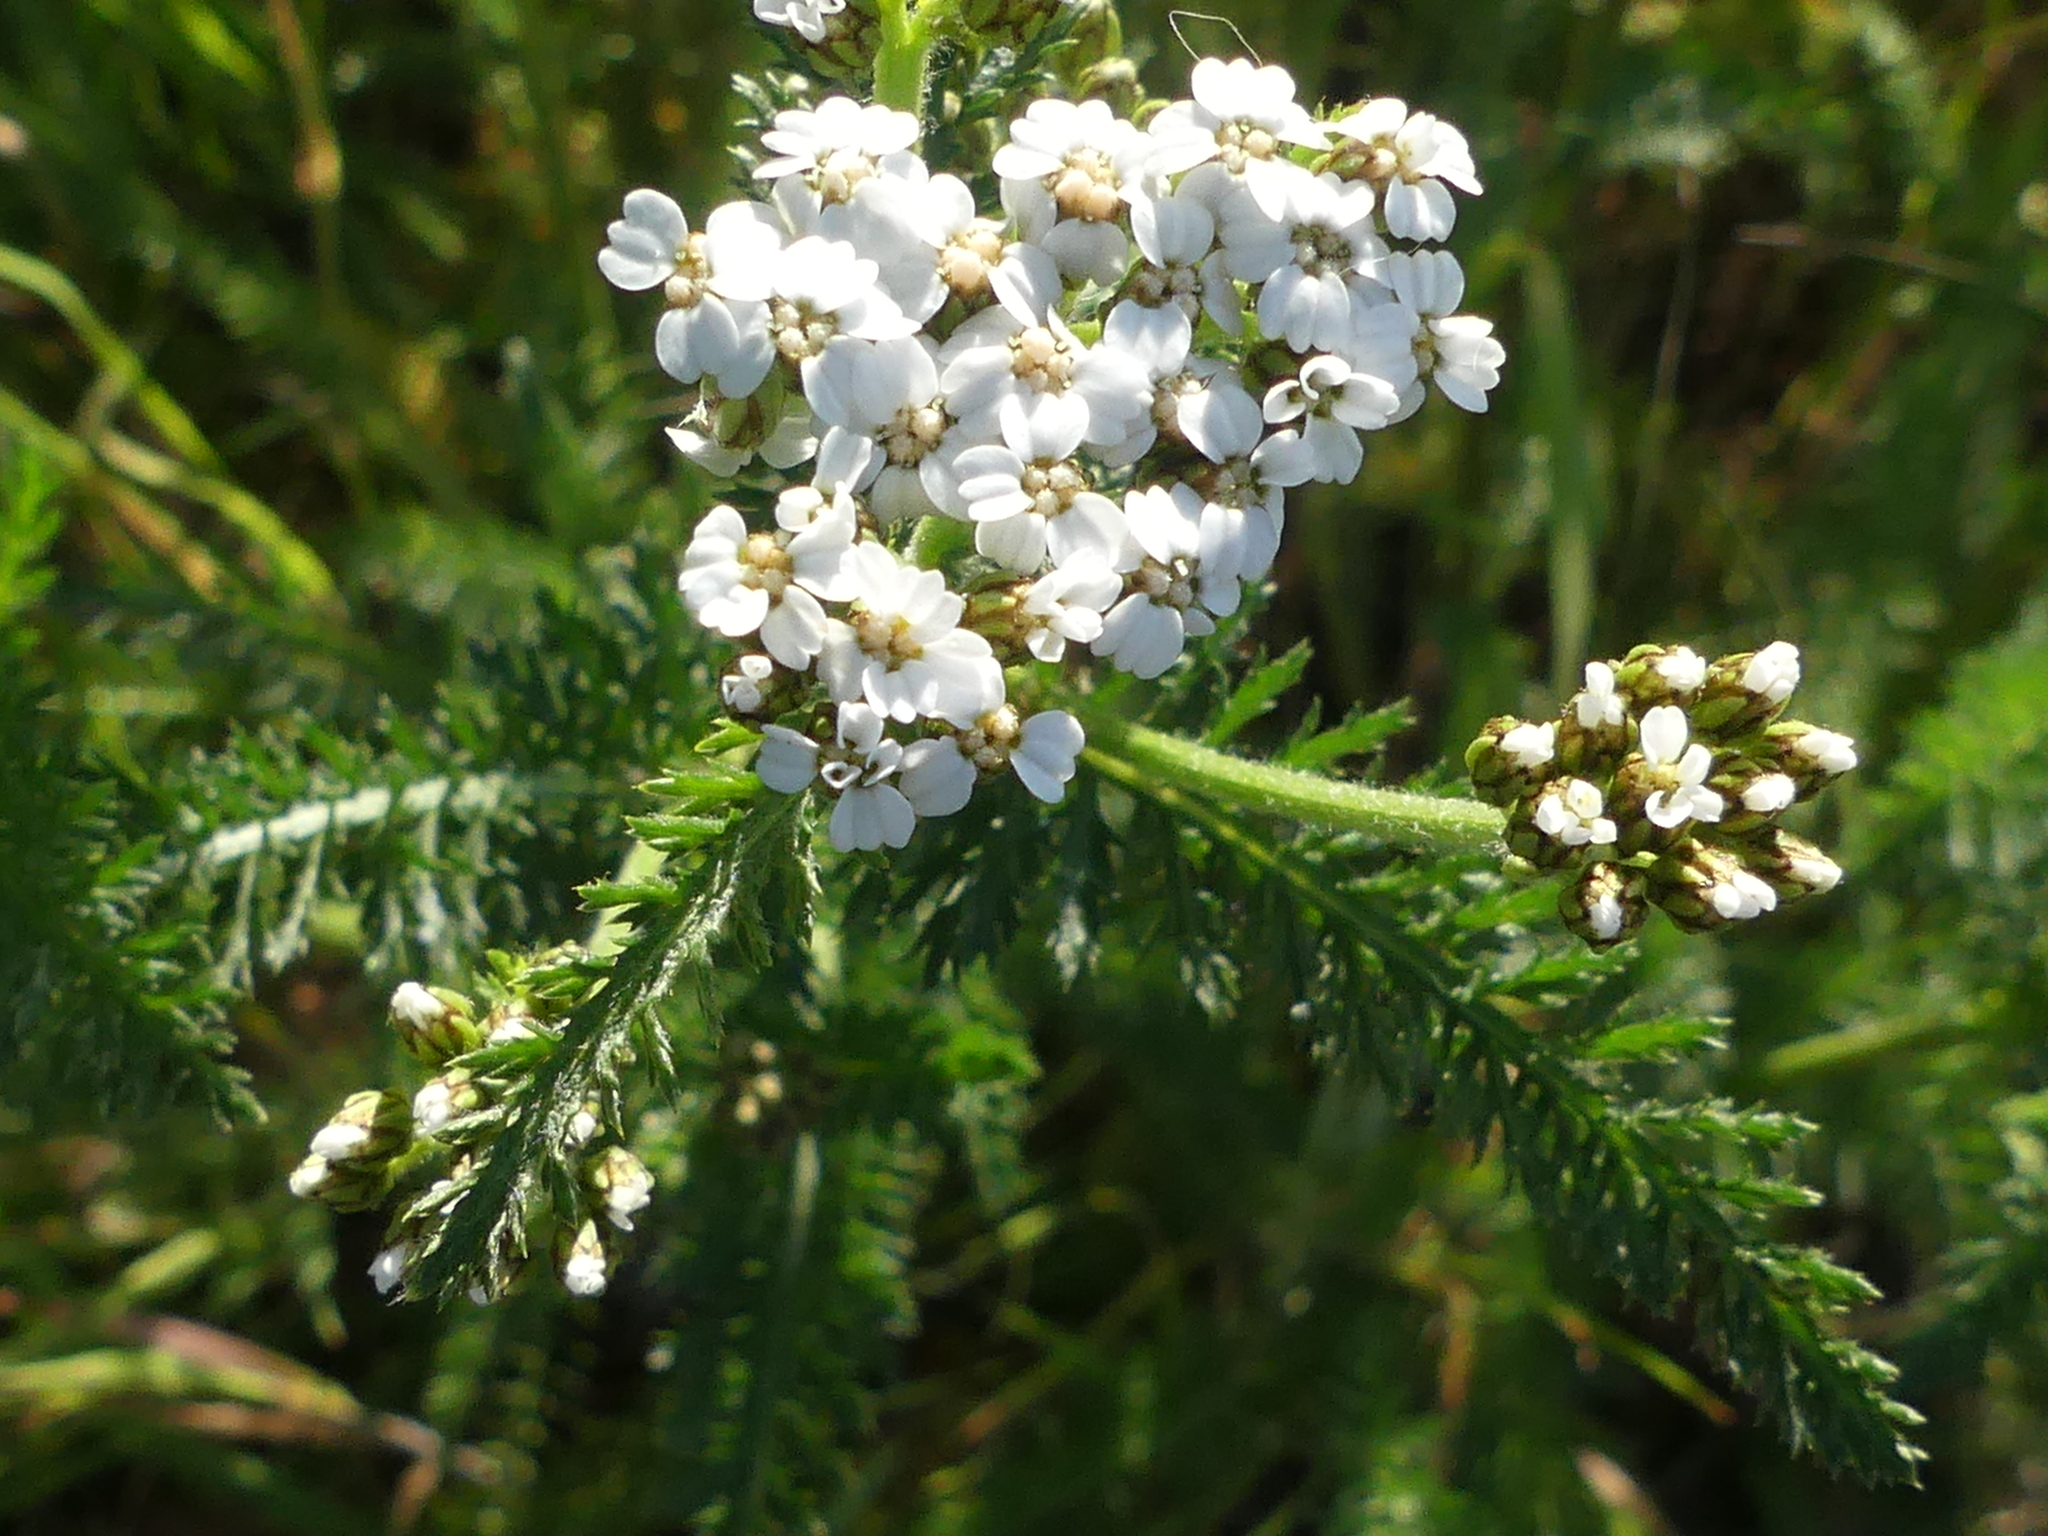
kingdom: Plantae
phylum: Tracheophyta
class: Magnoliopsida
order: Asterales
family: Asteraceae
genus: Achillea
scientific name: Achillea millefolium
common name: Yarrow
